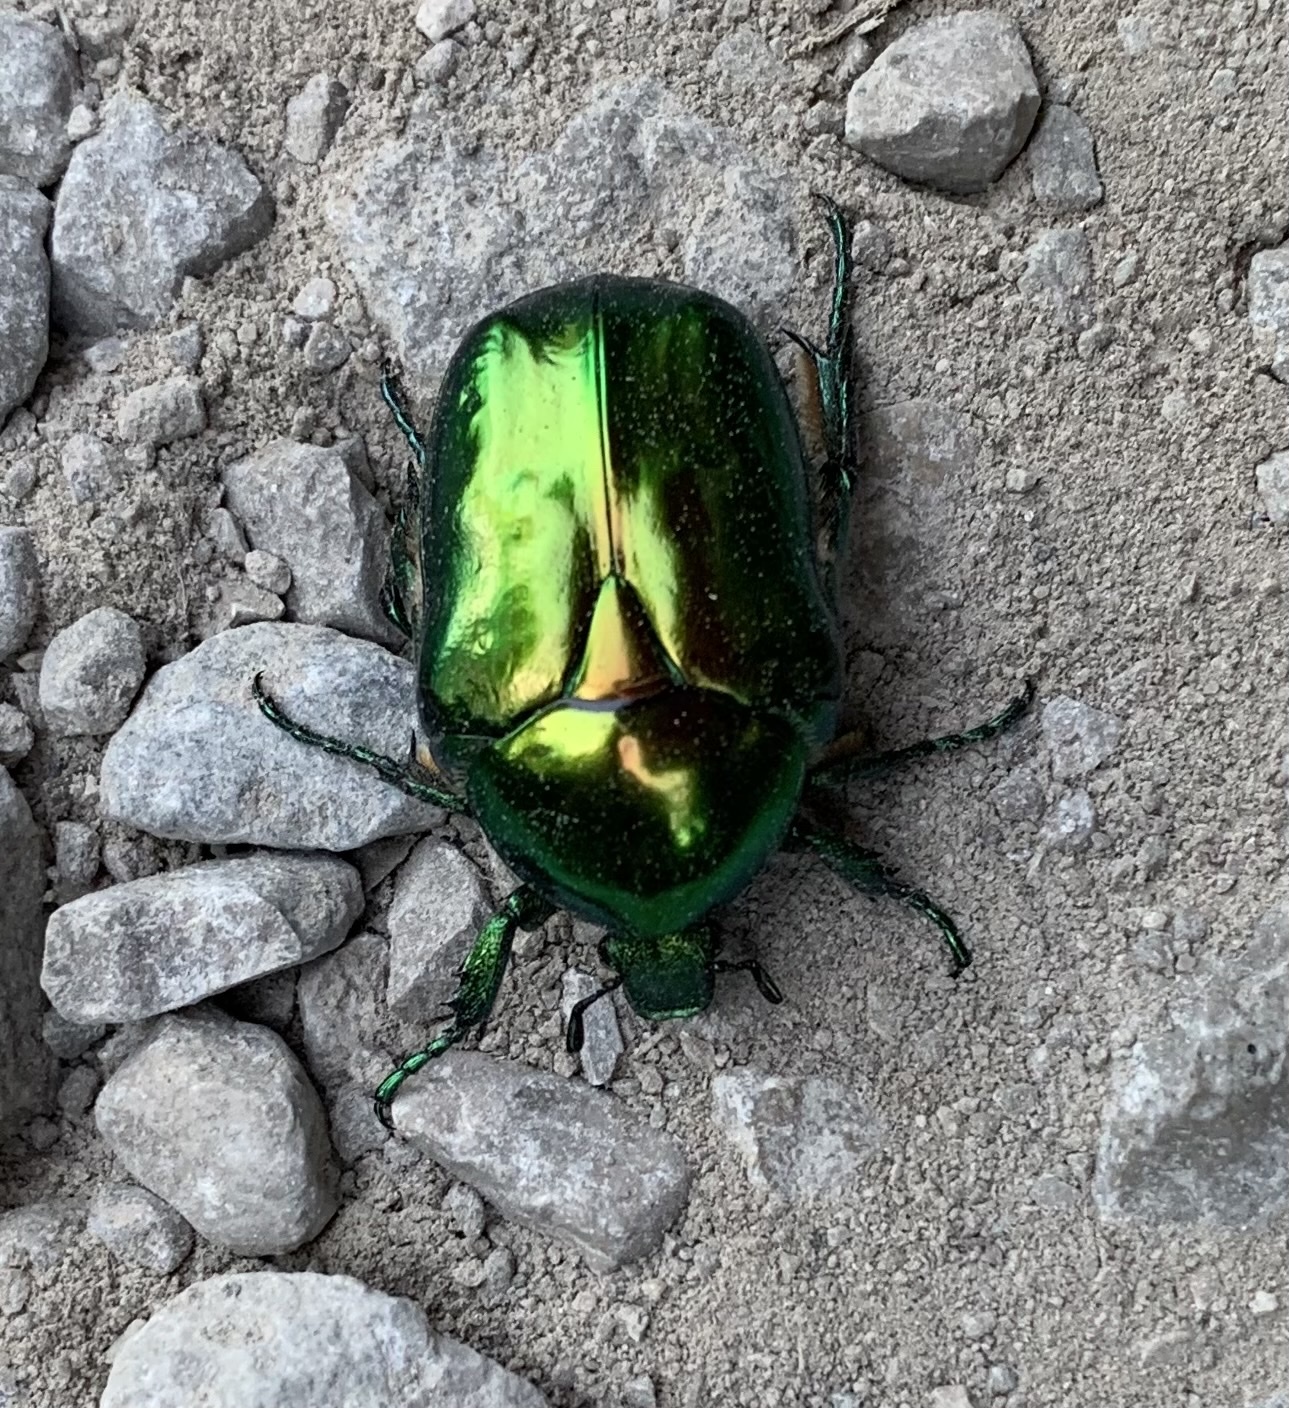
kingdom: Animalia
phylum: Arthropoda
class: Insecta
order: Coleoptera
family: Scarabaeidae
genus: Protaetia
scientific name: Protaetia speciosissima
